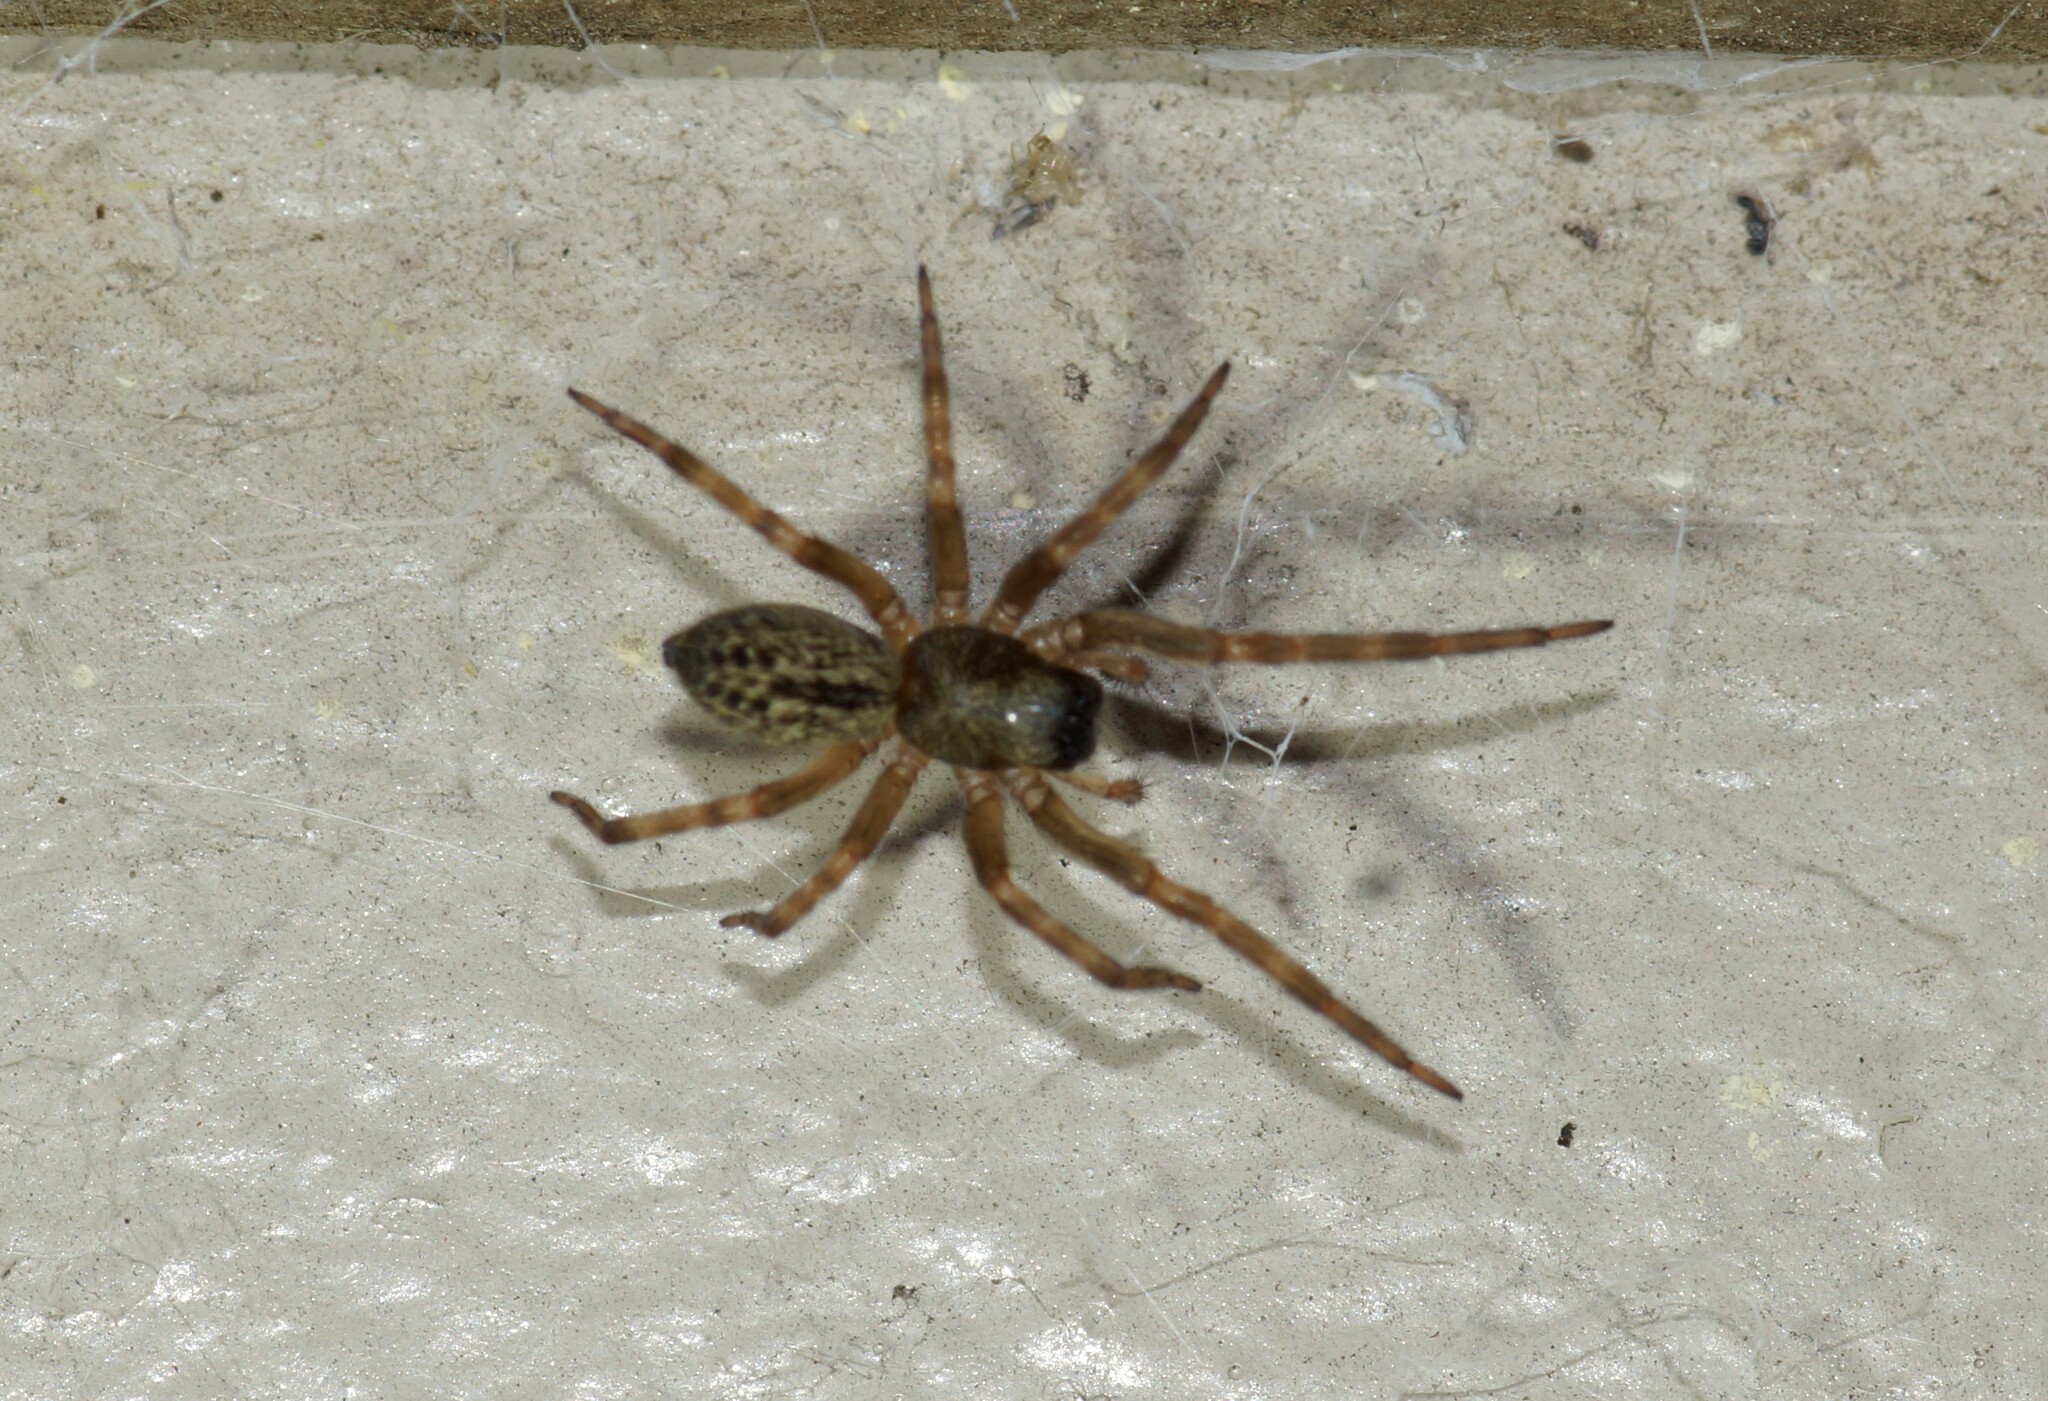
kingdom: Animalia
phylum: Arthropoda
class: Arachnida
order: Araneae
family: Desidae
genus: Badumna
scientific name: Badumna longinqua
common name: Gray house spider
